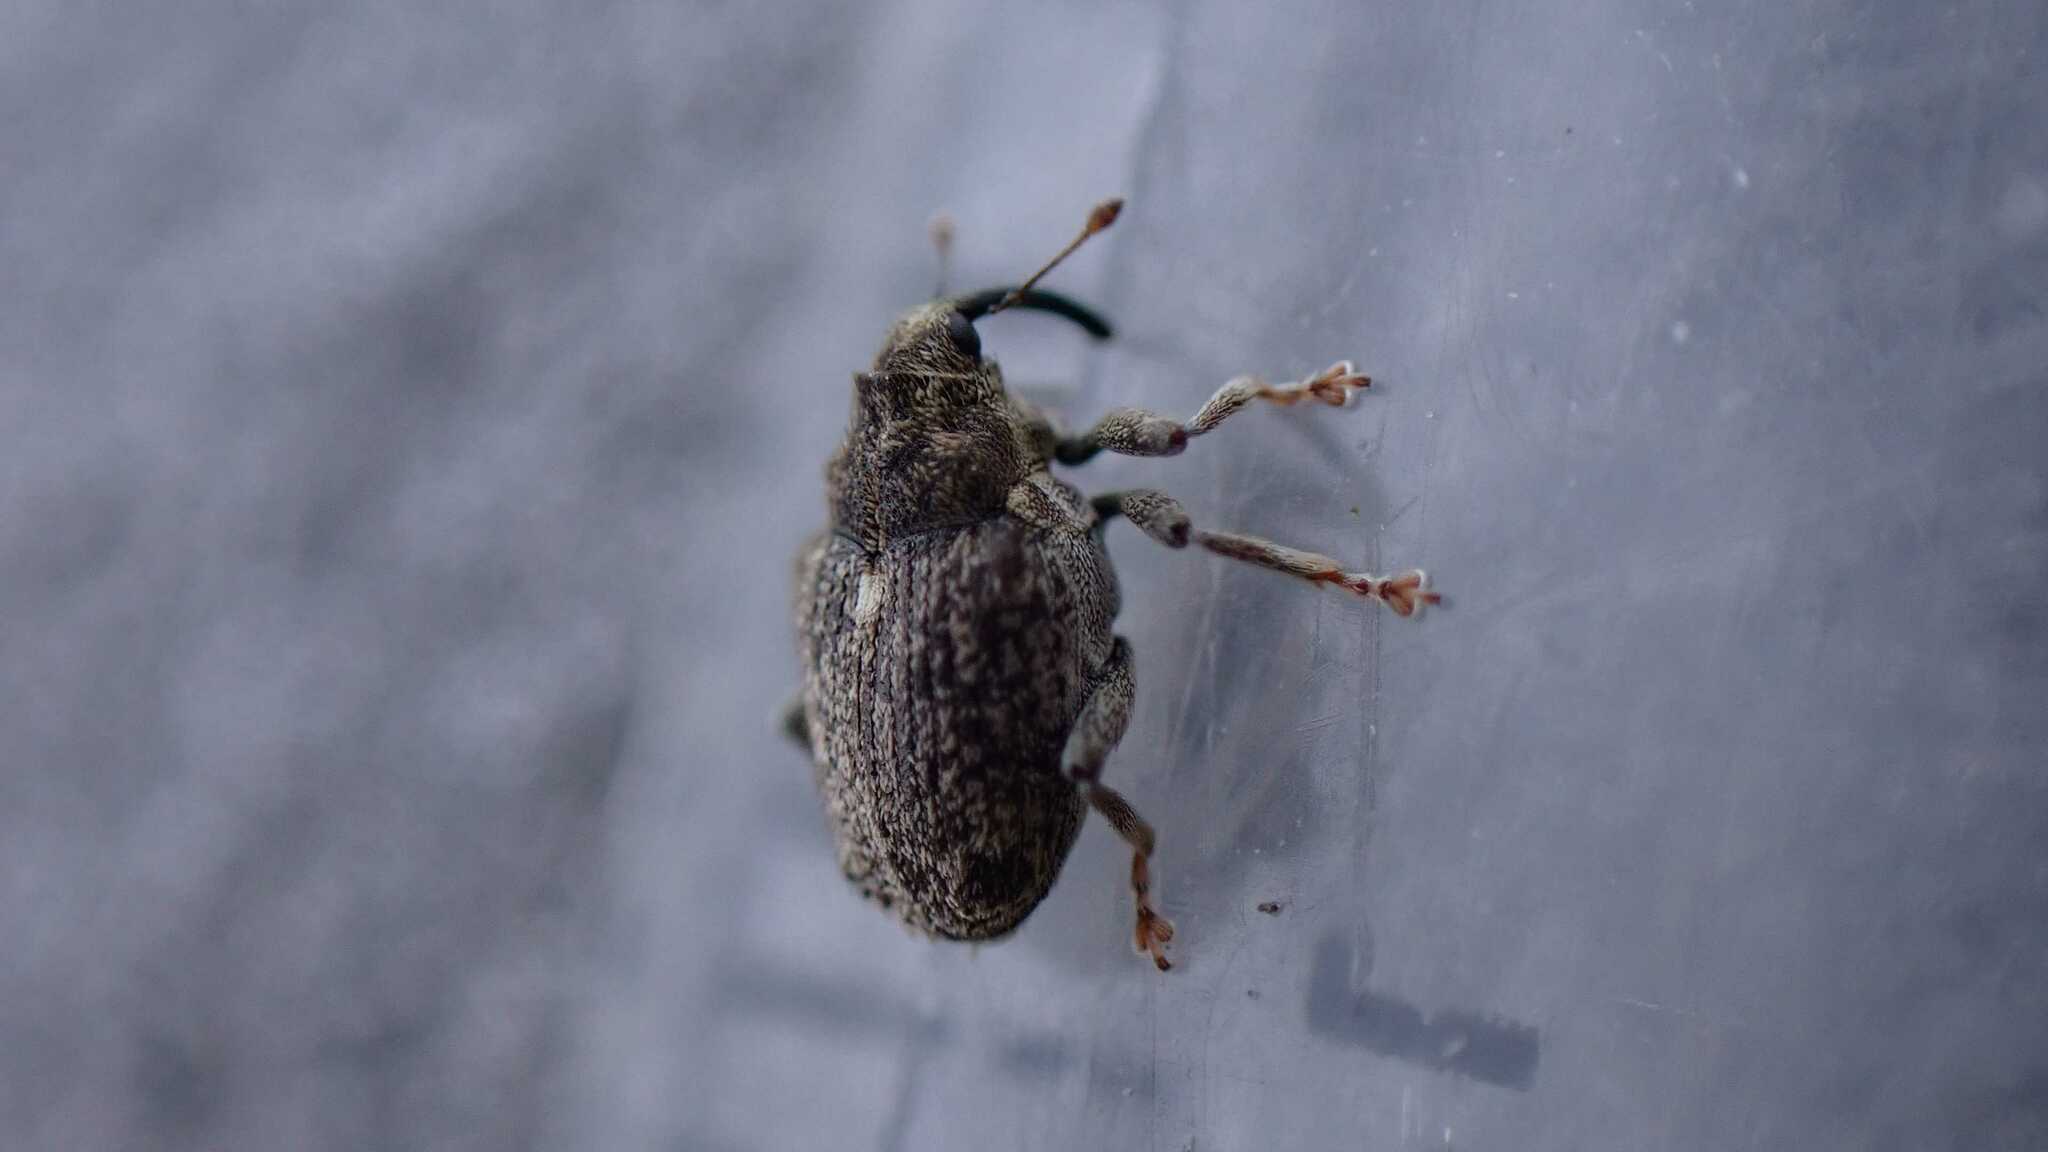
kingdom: Animalia
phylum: Arthropoda
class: Insecta
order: Coleoptera
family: Curculionidae
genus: Ceutorhynchus
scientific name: Ceutorhynchus pallidactylus
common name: Cabbage stem weavil
